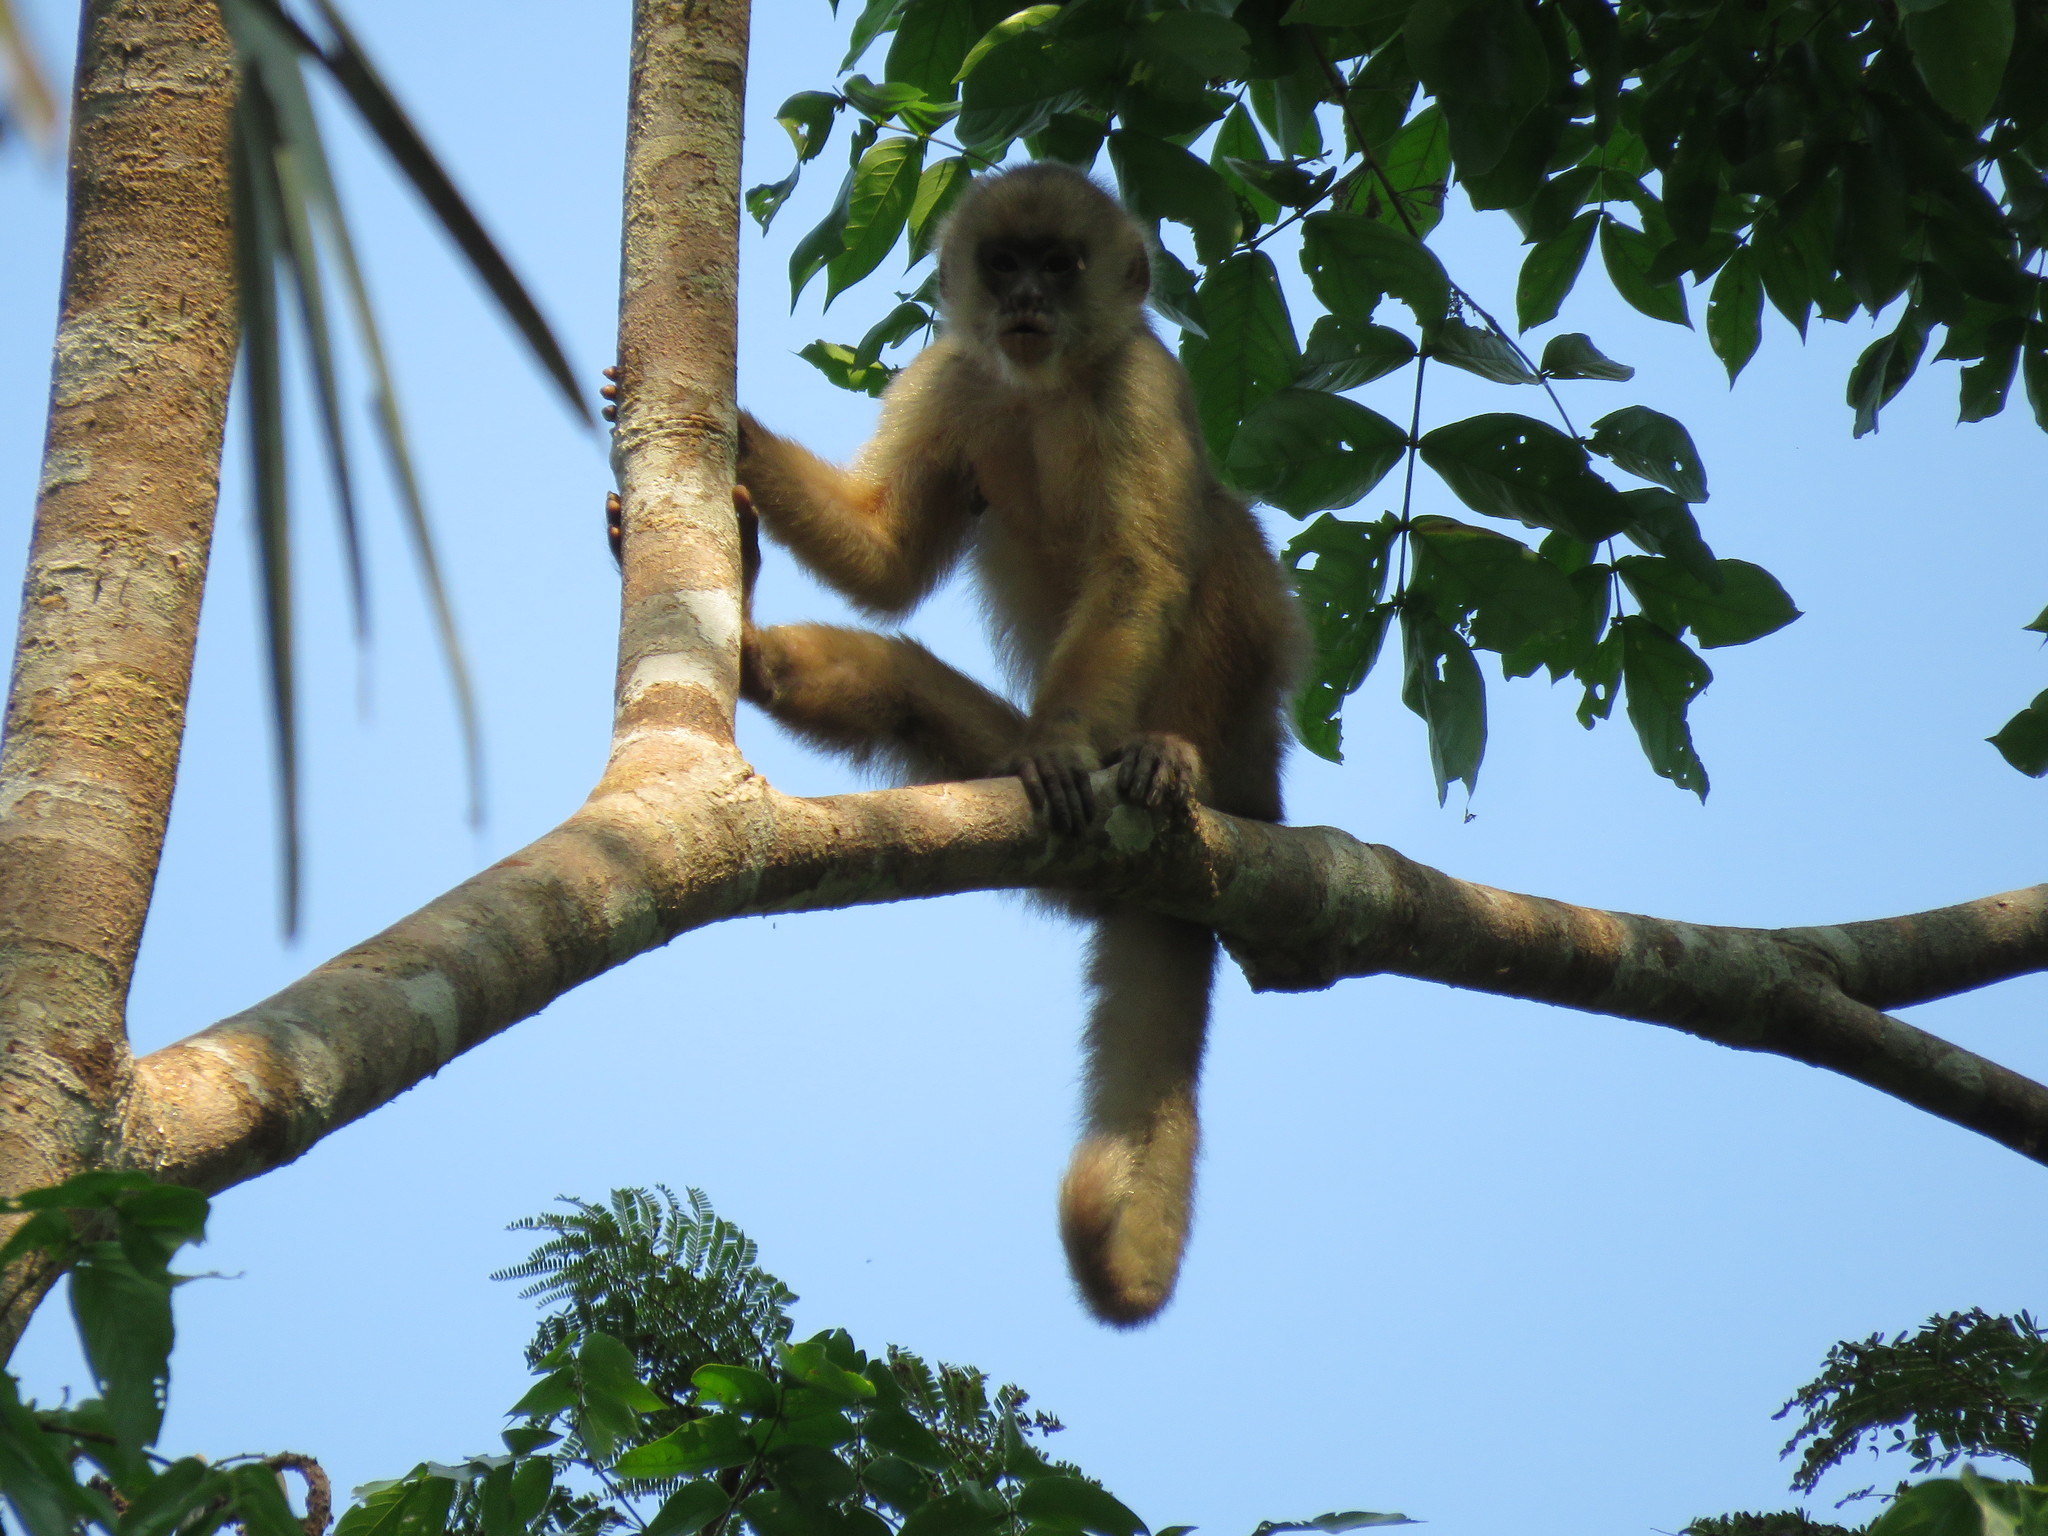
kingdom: Animalia
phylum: Chordata
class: Mammalia
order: Primates
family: Cebidae
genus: Cebus
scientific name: Cebus unicolor
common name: Spix's white-fronted capuchin
